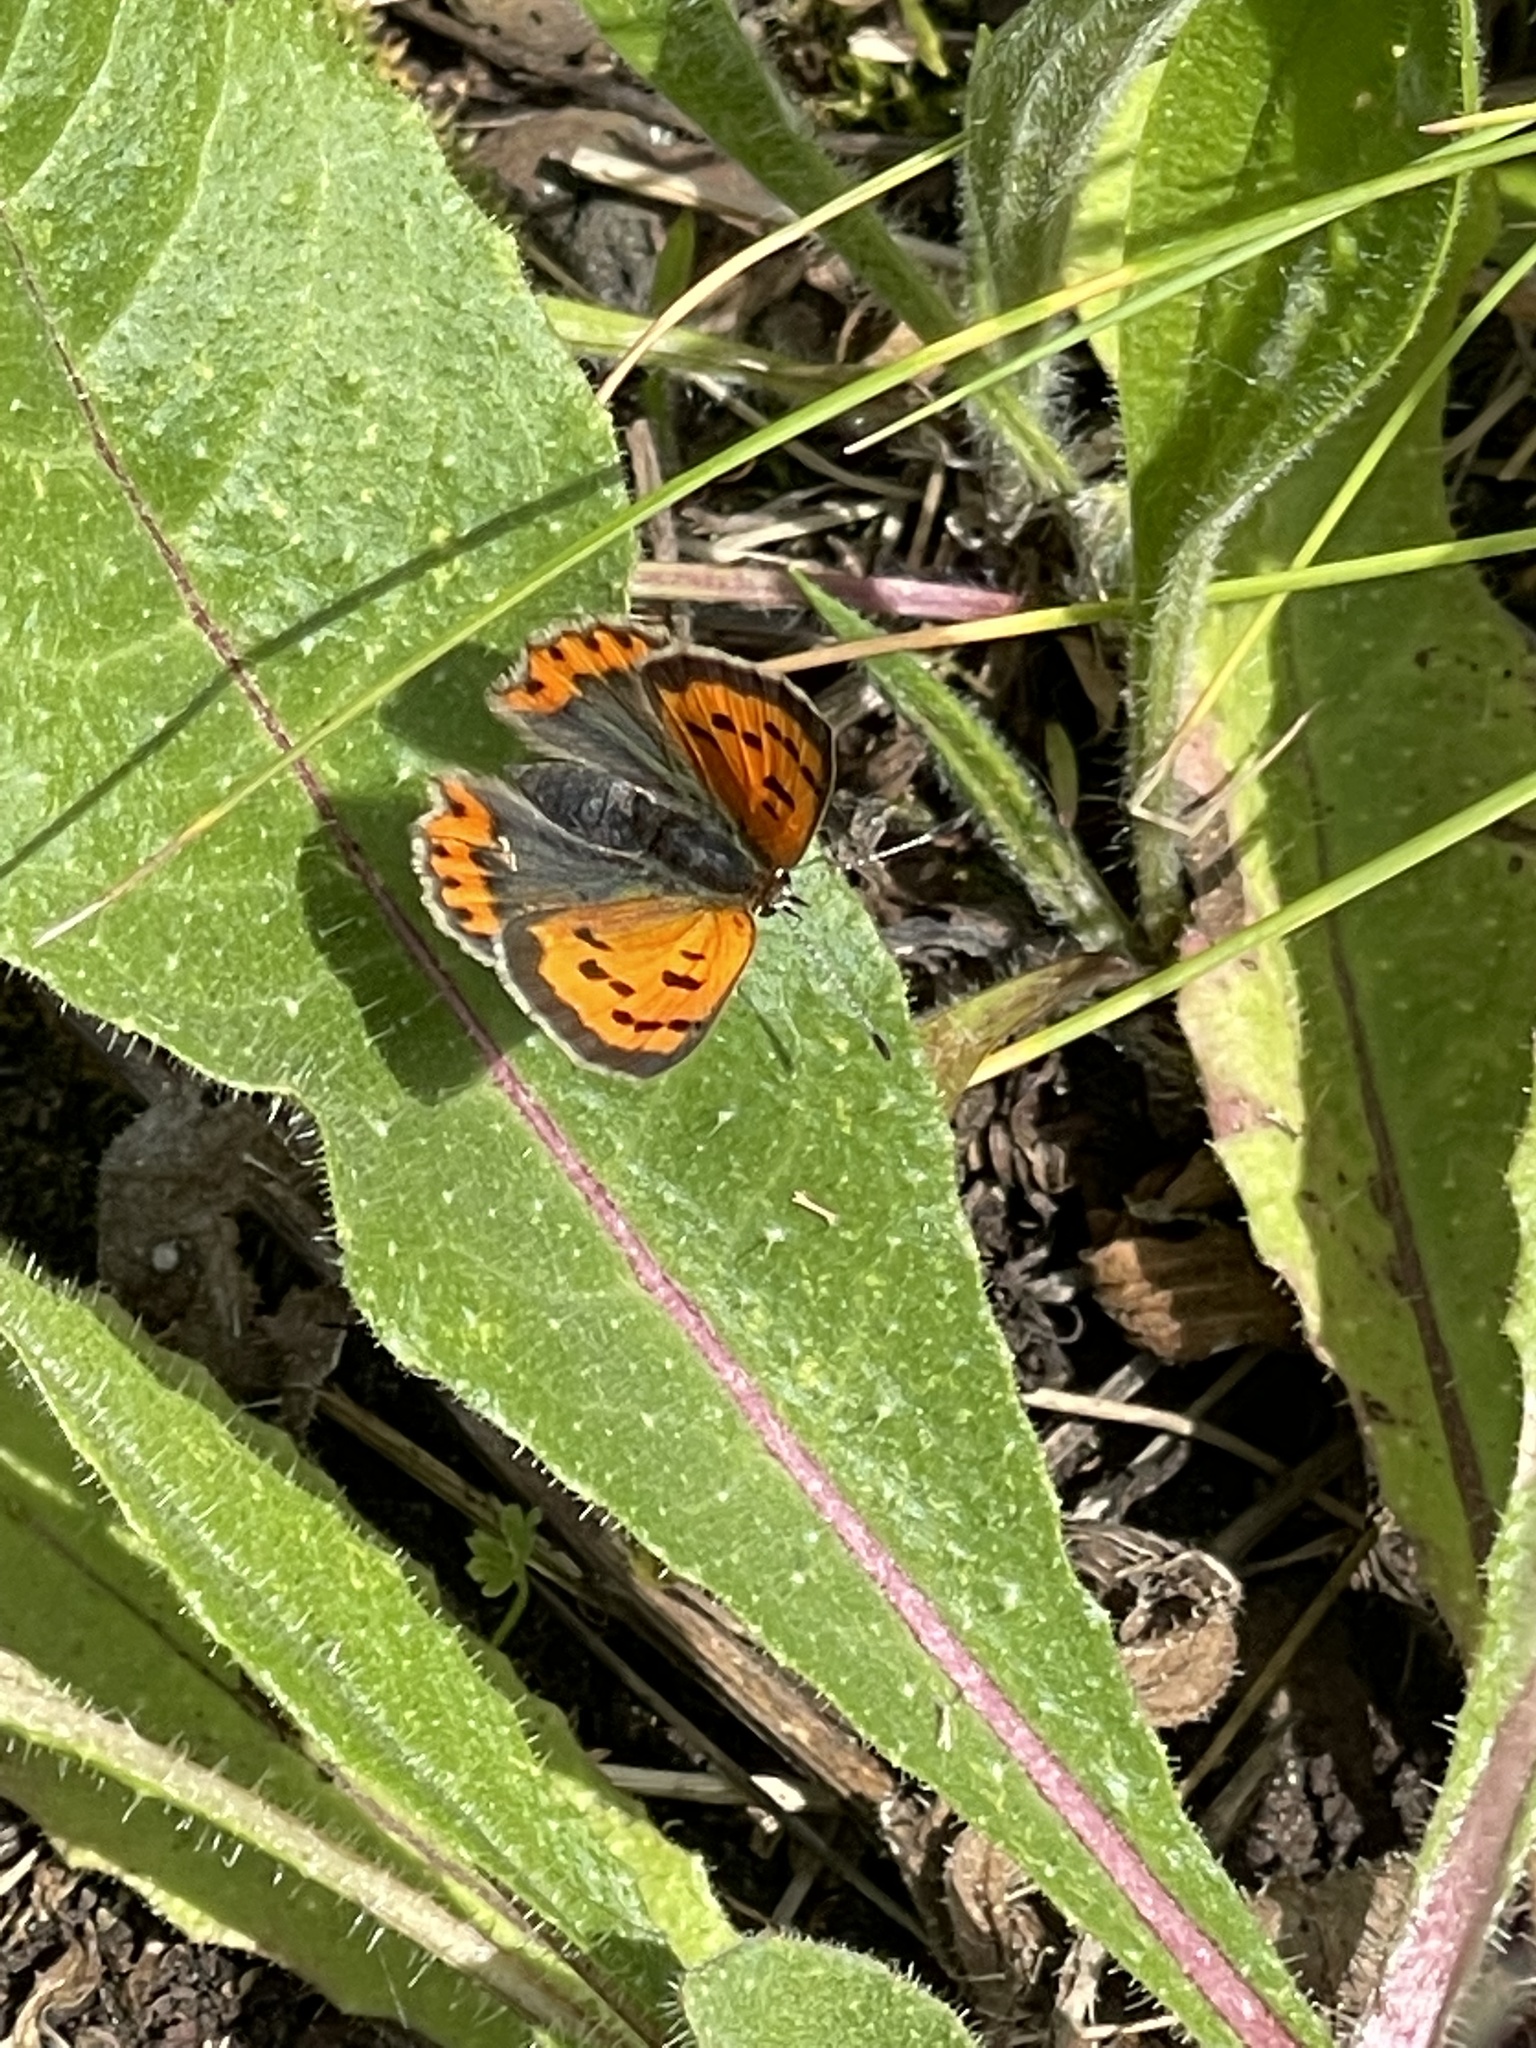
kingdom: Animalia
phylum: Arthropoda
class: Insecta
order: Lepidoptera
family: Lycaenidae
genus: Lycaena
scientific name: Lycaena phlaeas
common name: Small copper
